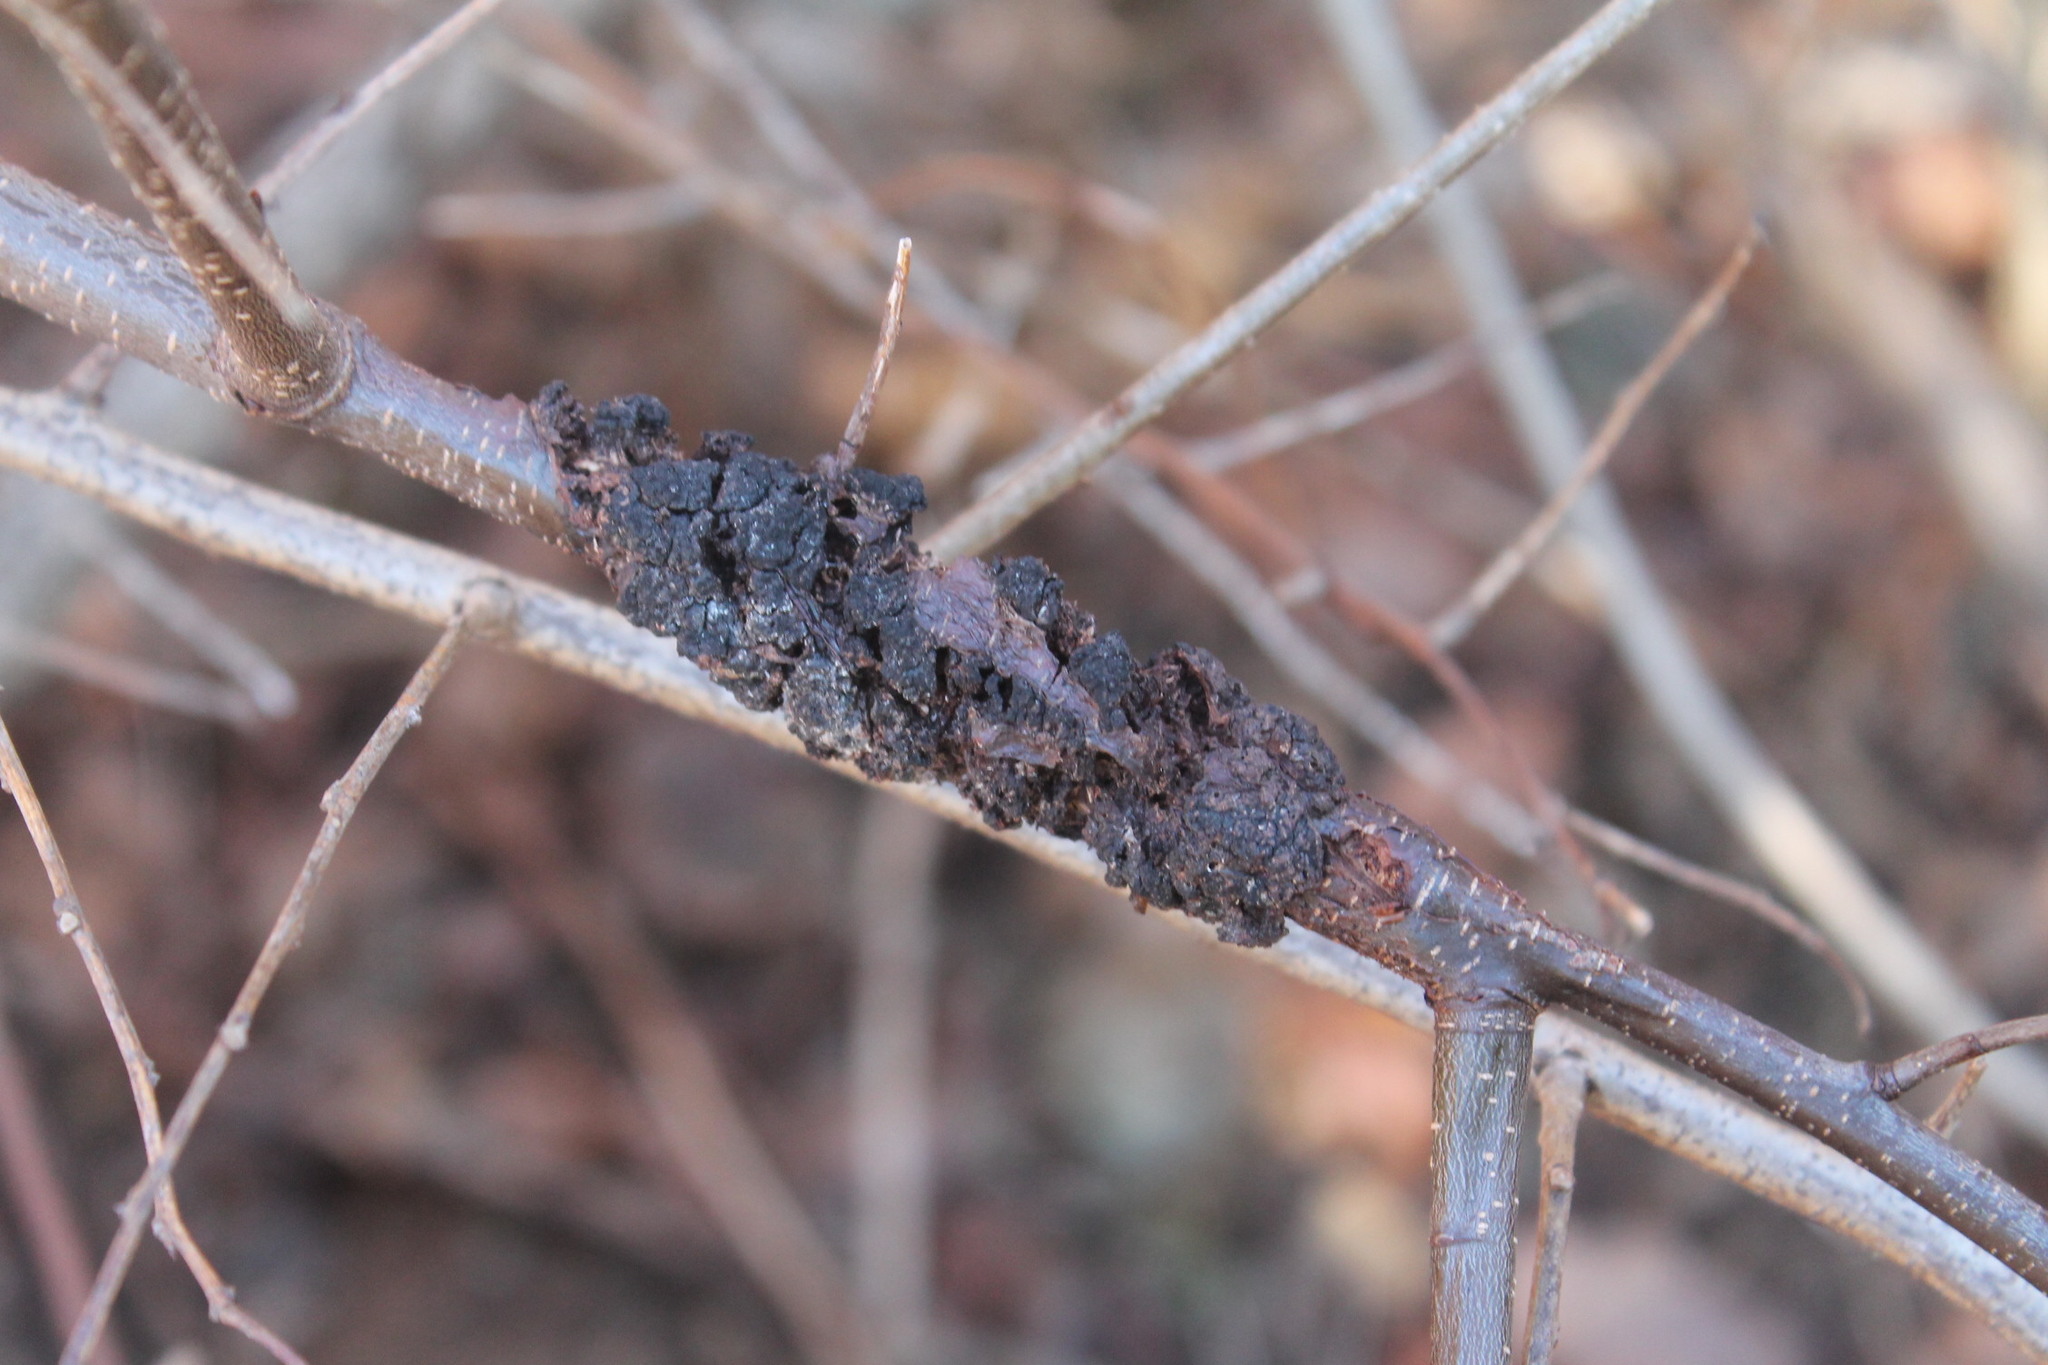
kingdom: Fungi
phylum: Ascomycota
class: Dothideomycetes
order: Venturiales
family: Venturiaceae
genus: Apiosporina
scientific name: Apiosporina morbosa
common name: Black knot
